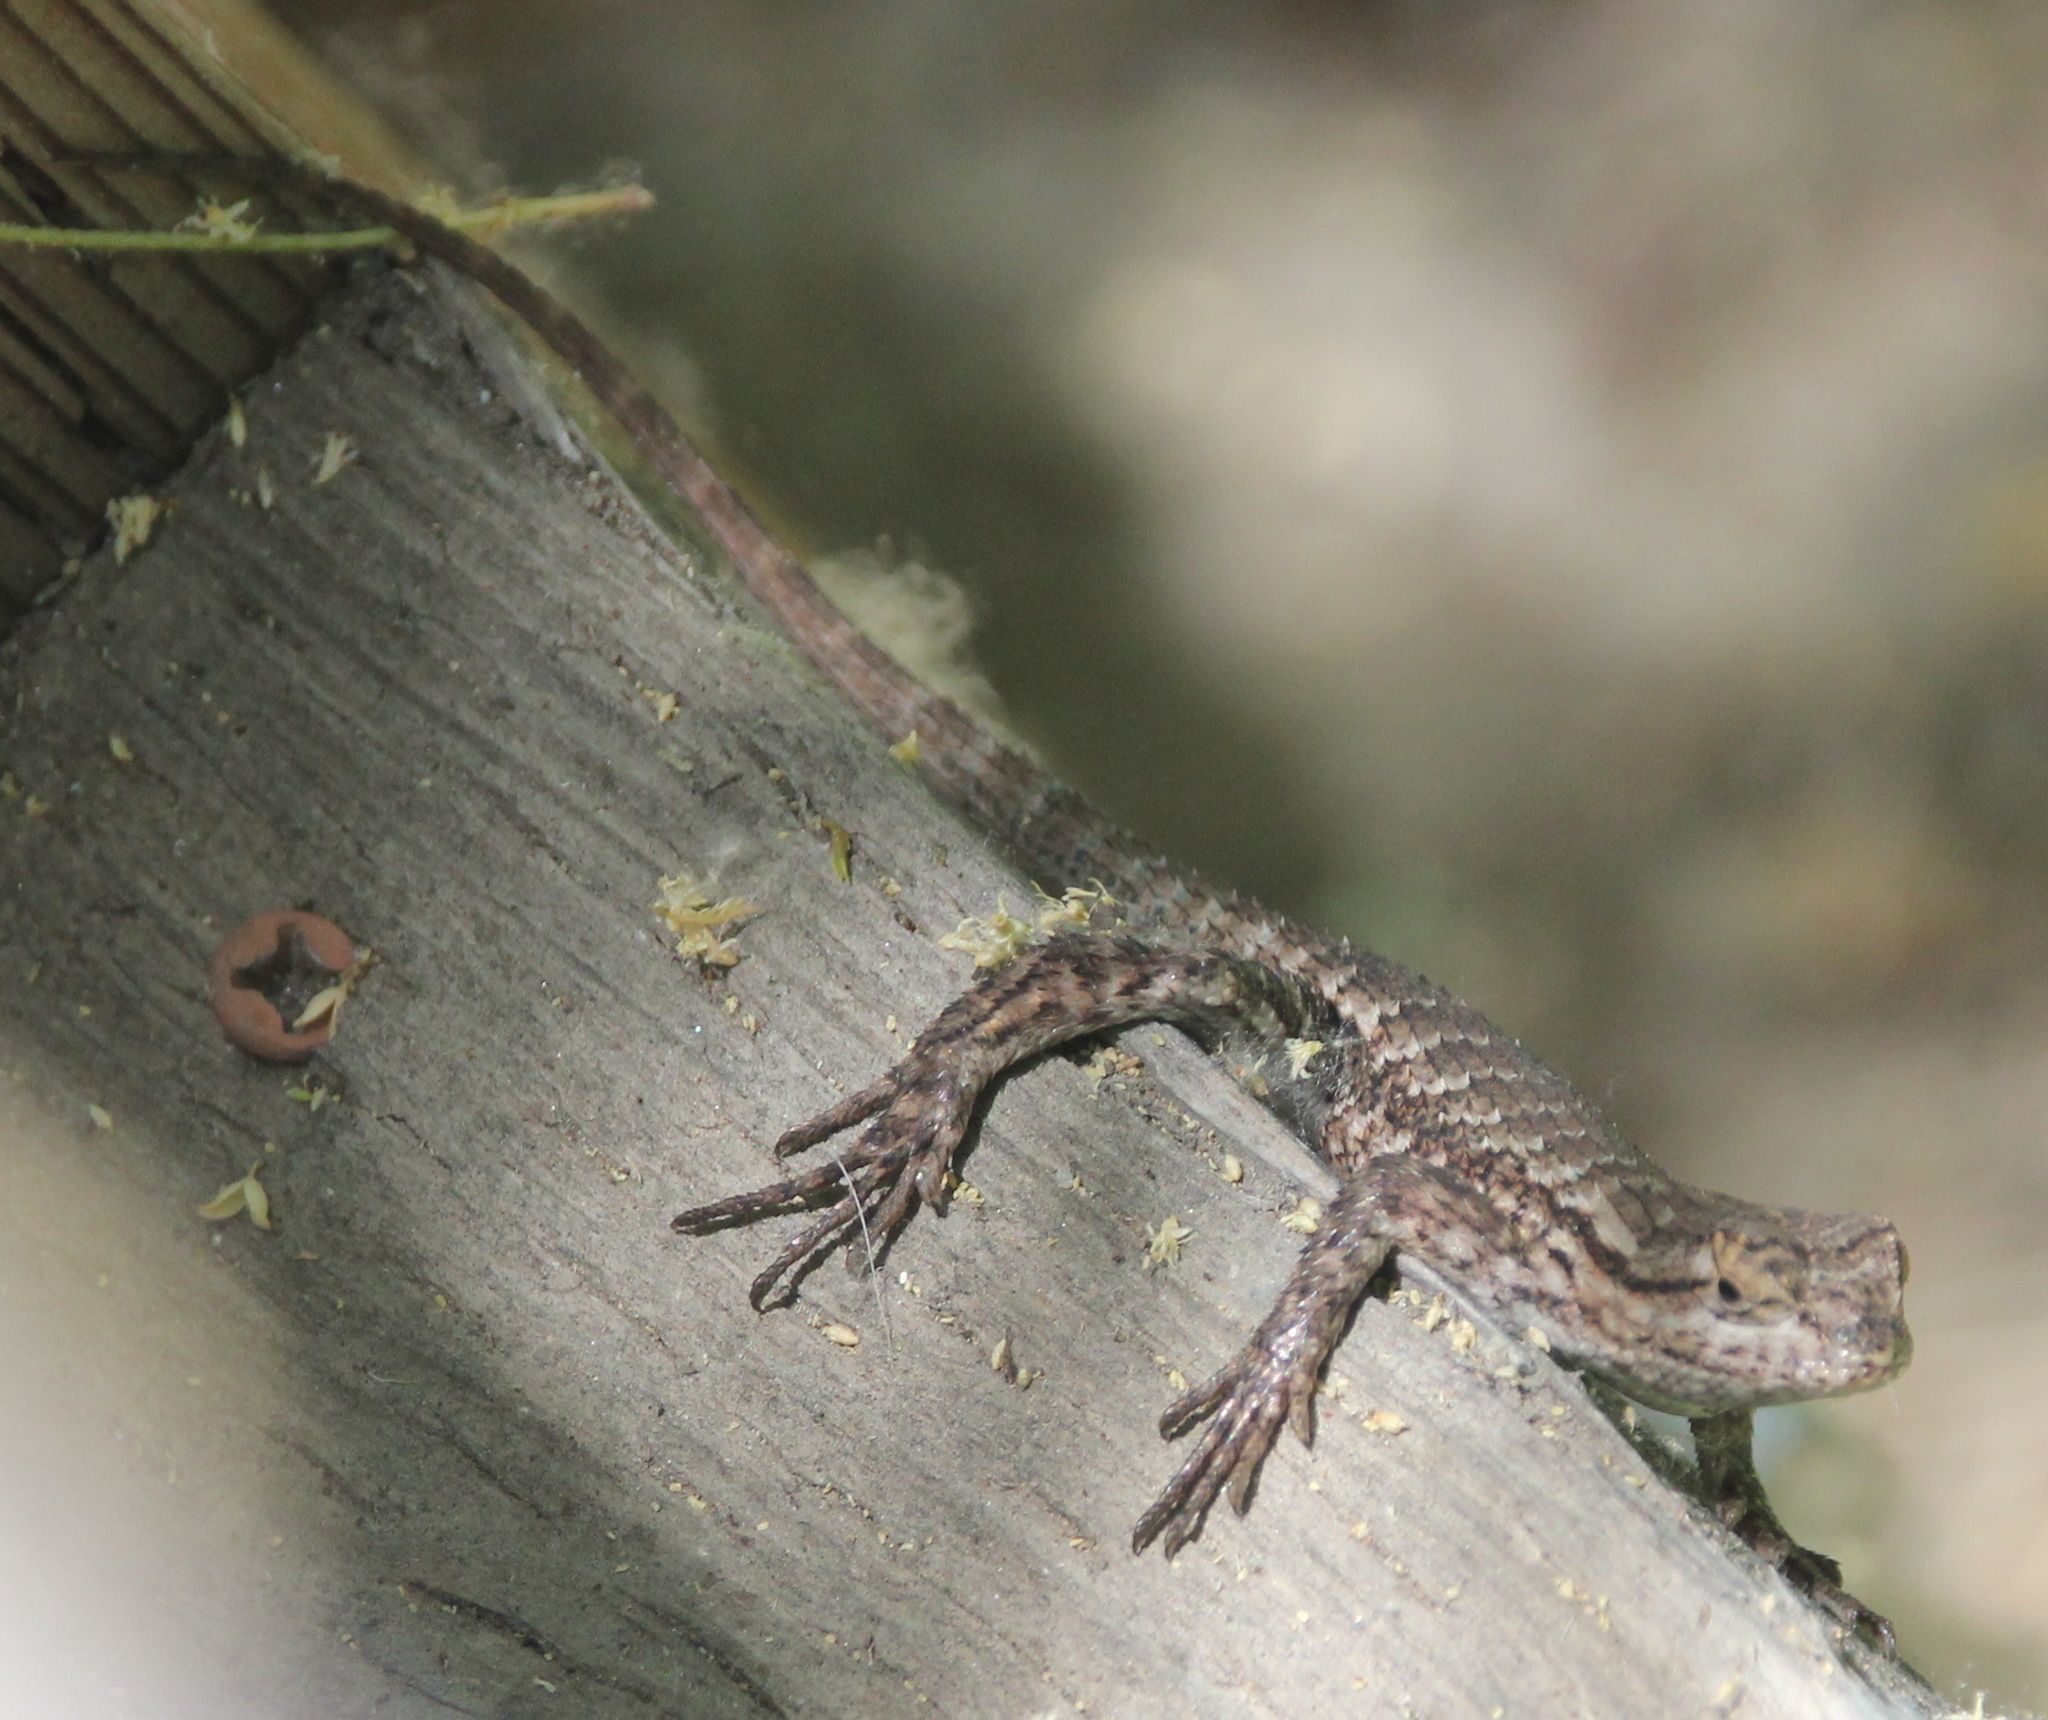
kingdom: Animalia
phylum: Chordata
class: Squamata
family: Phrynosomatidae
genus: Sceloporus
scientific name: Sceloporus occidentalis
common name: Western fence lizard
